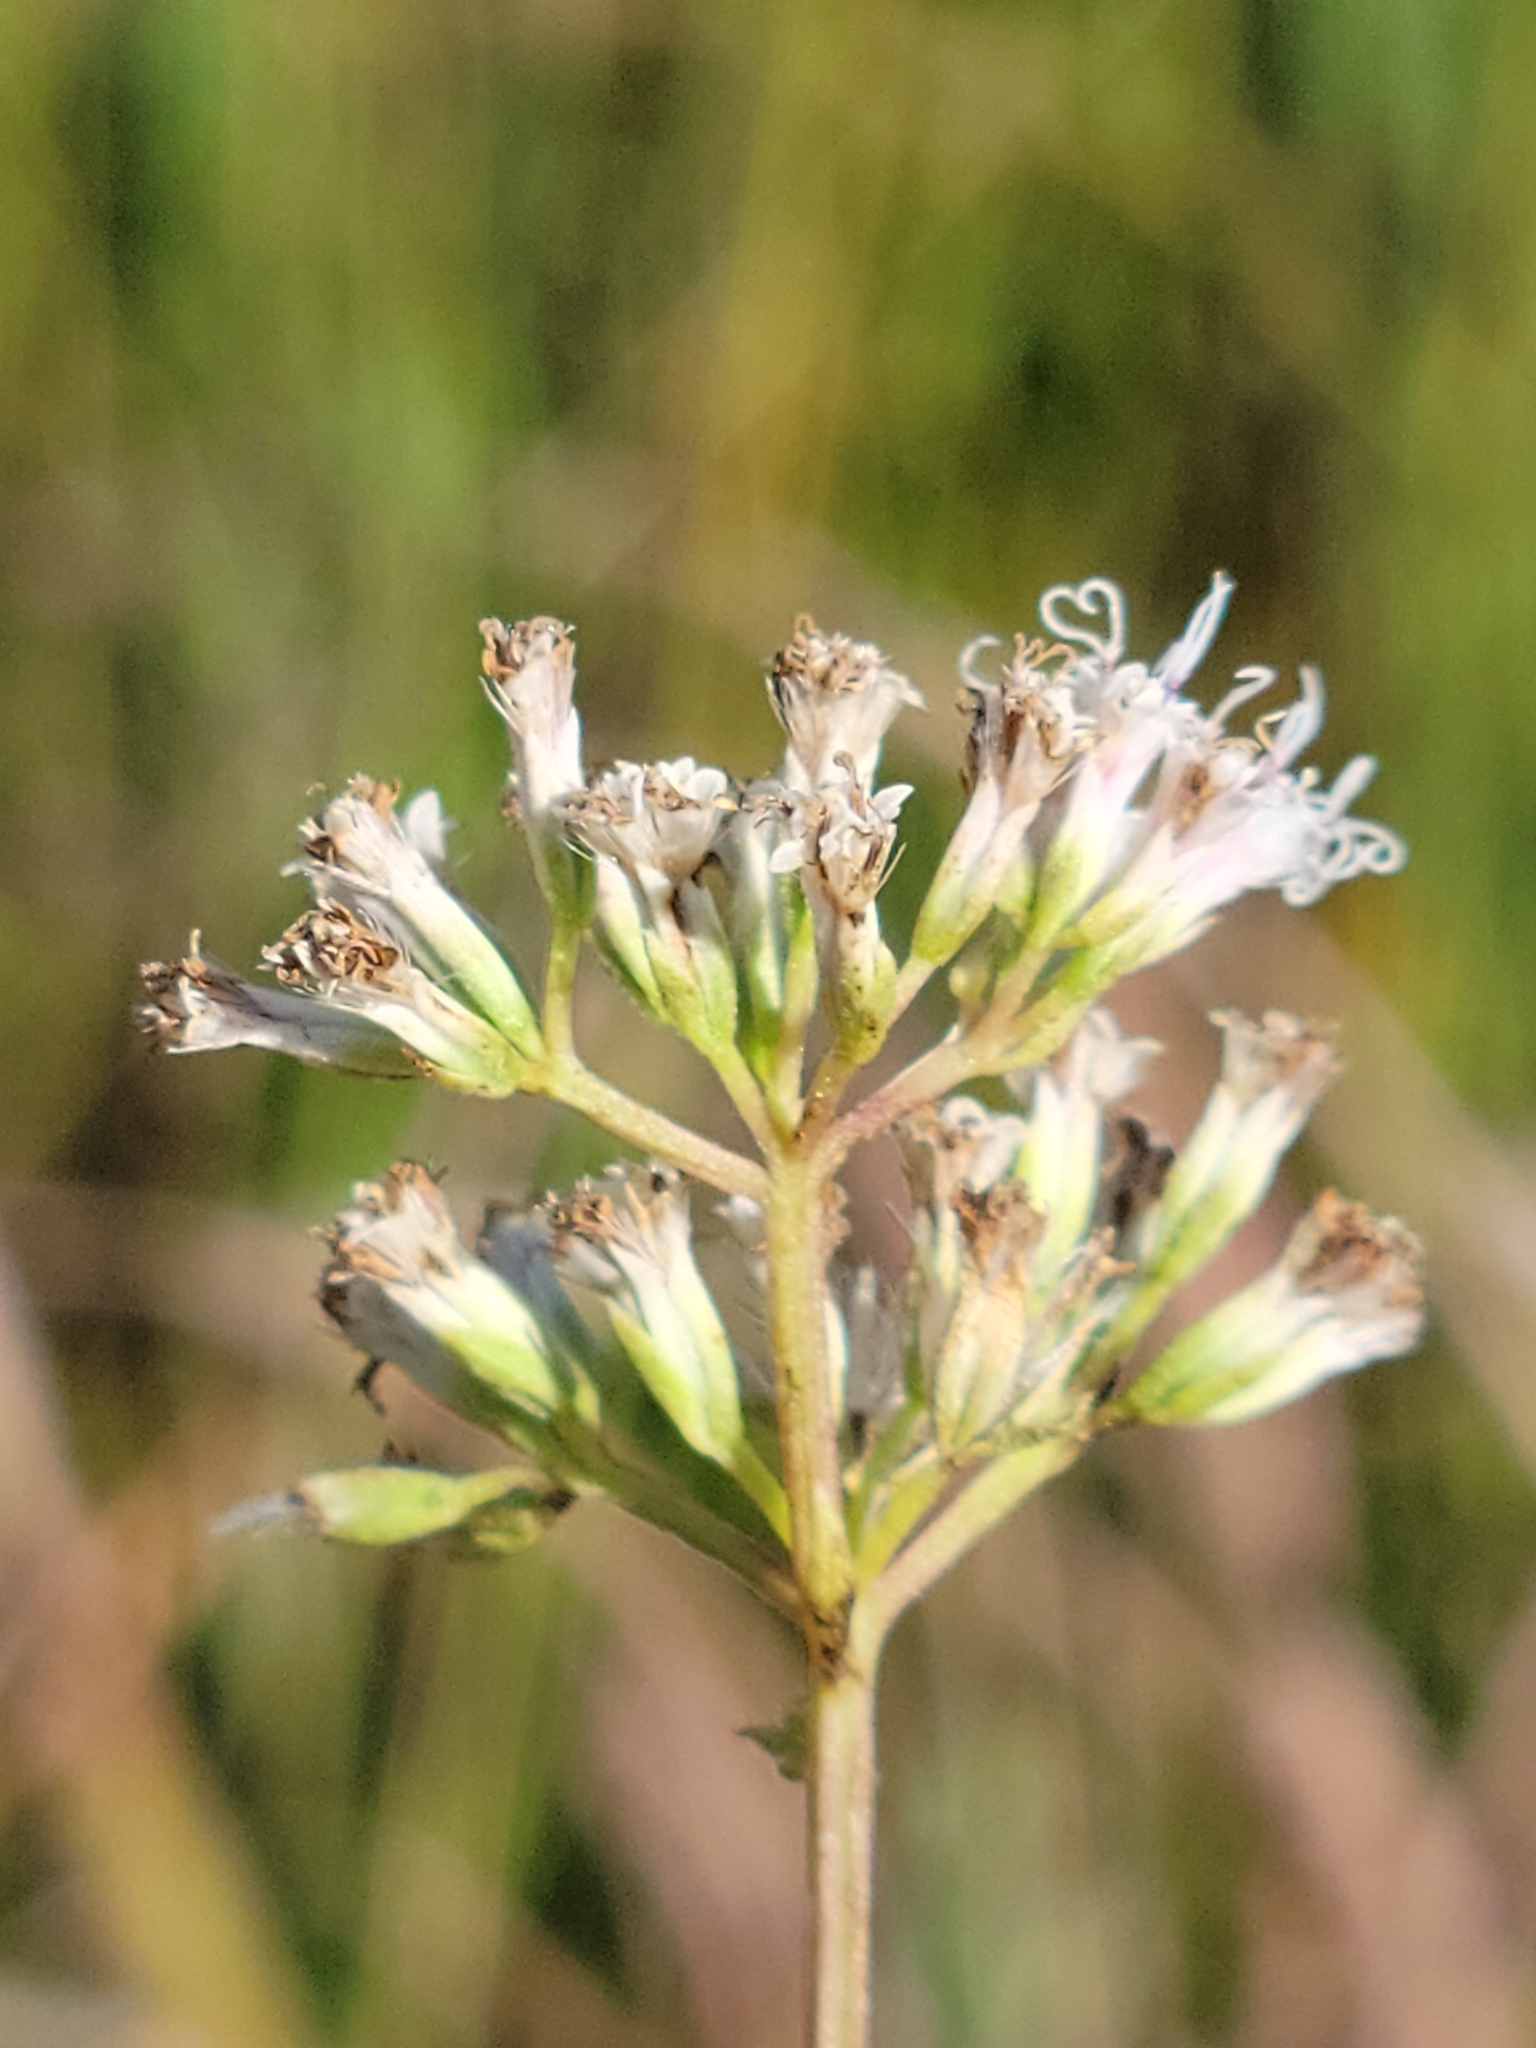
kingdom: Plantae
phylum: Tracheophyta
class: Magnoliopsida
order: Asterales
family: Asteraceae
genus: Mikania
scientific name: Mikania scandens
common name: Climbing hempvine
